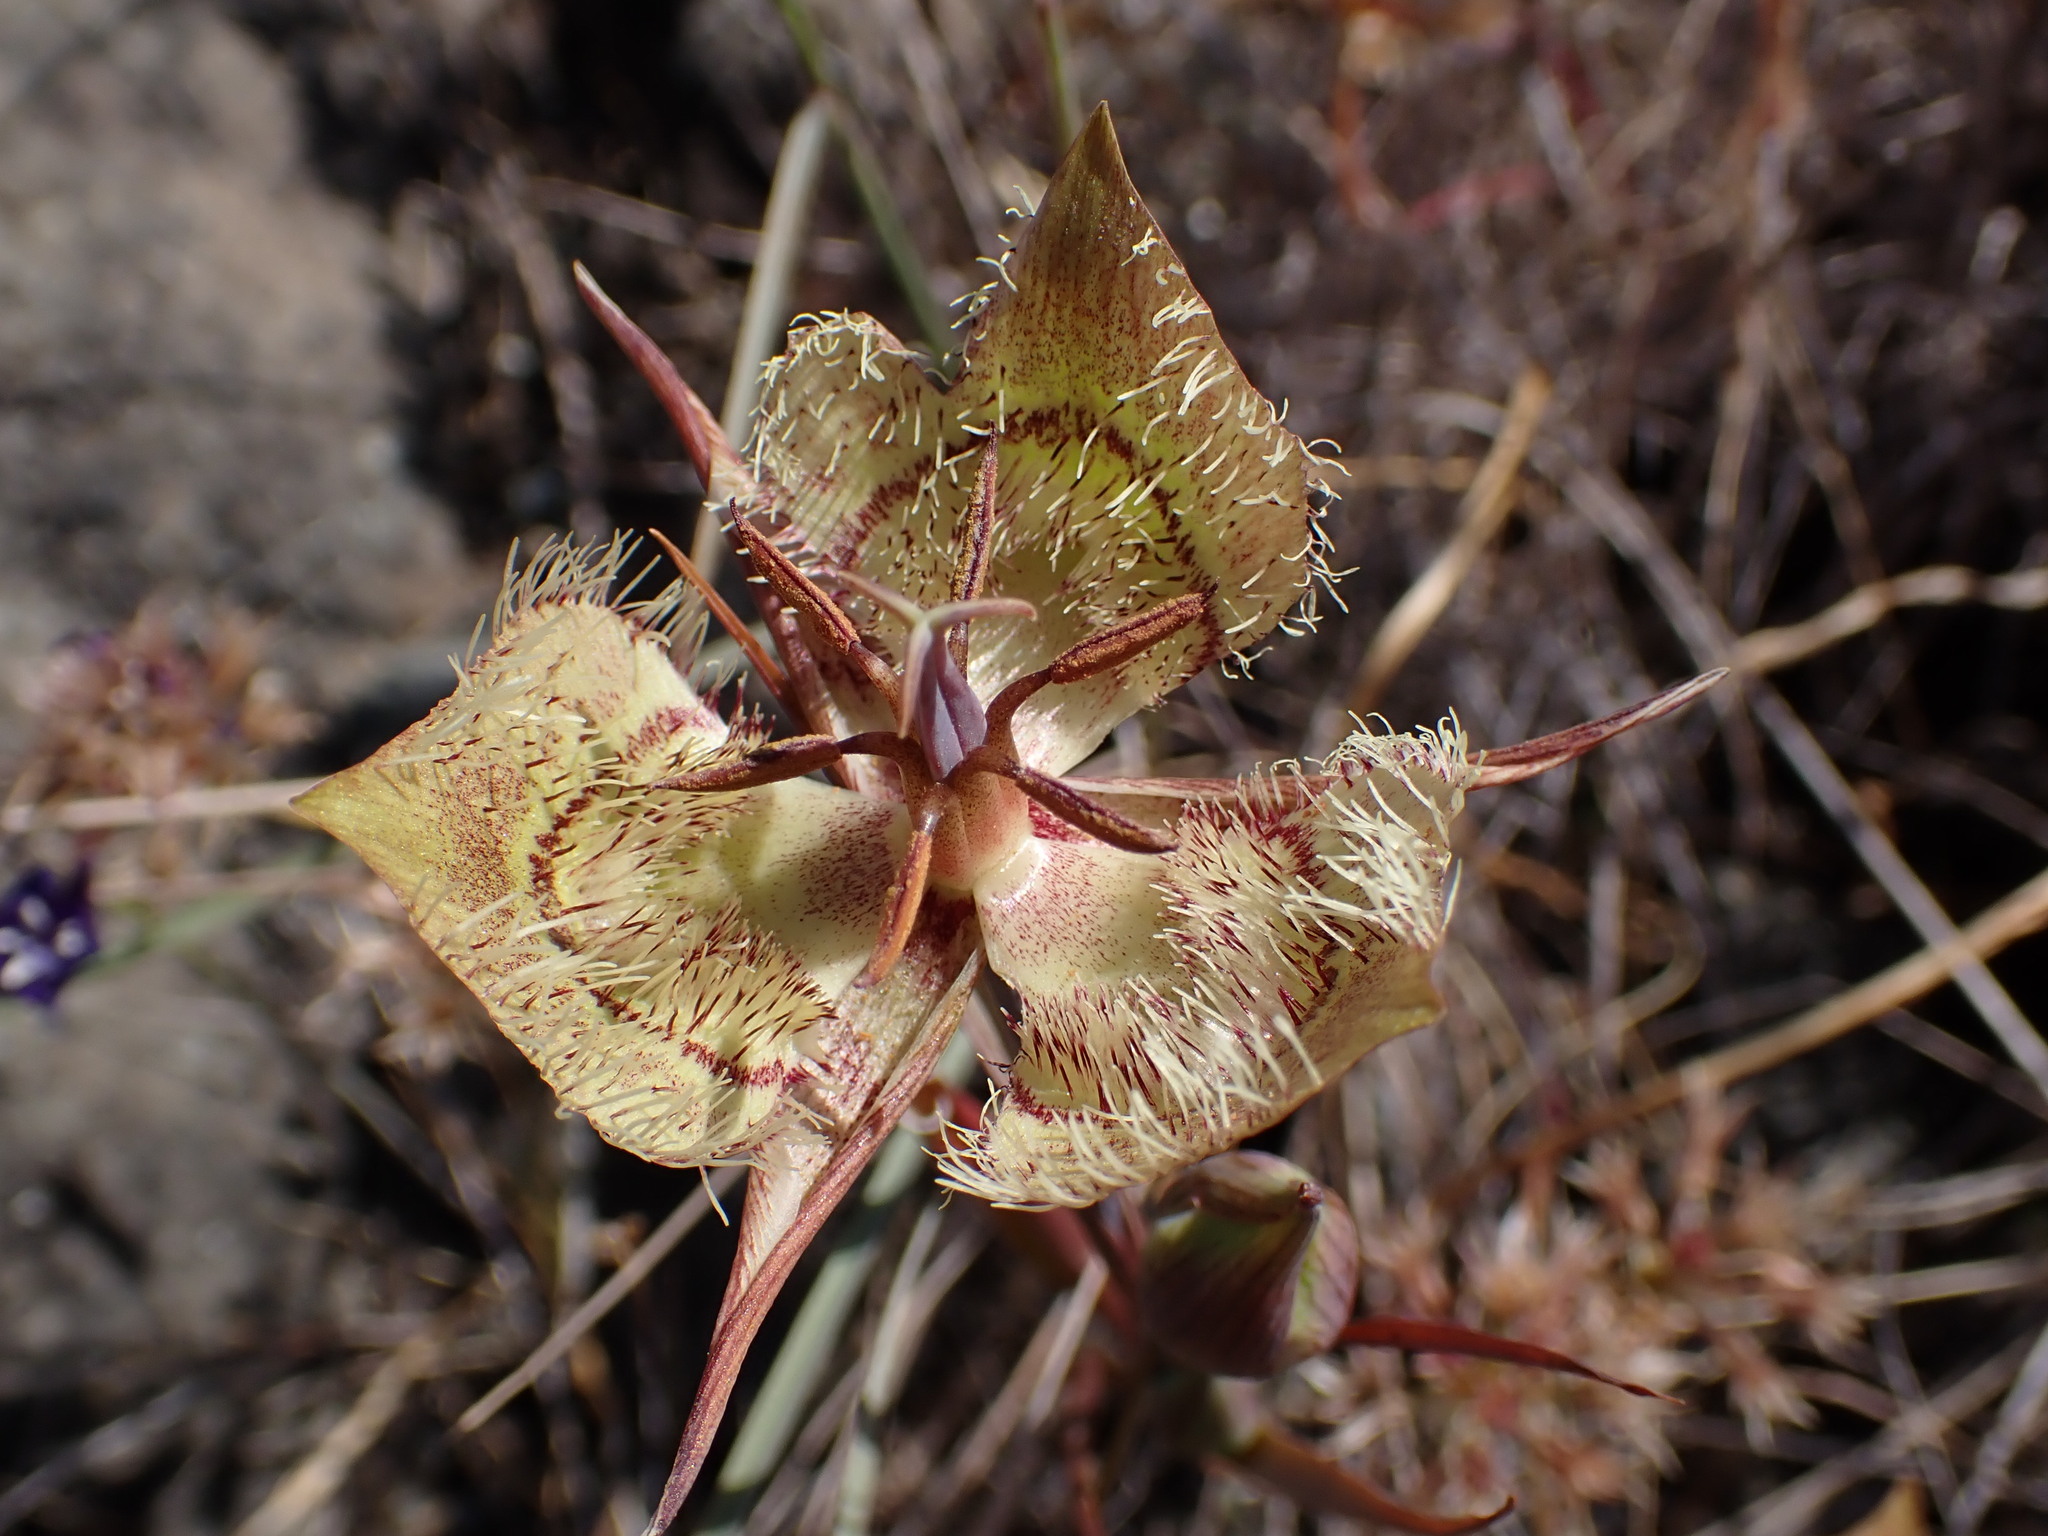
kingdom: Plantae
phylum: Tracheophyta
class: Liliopsida
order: Liliales
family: Liliaceae
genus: Calochortus
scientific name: Calochortus tiburonensis
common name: Tiburon mariposa-lily
